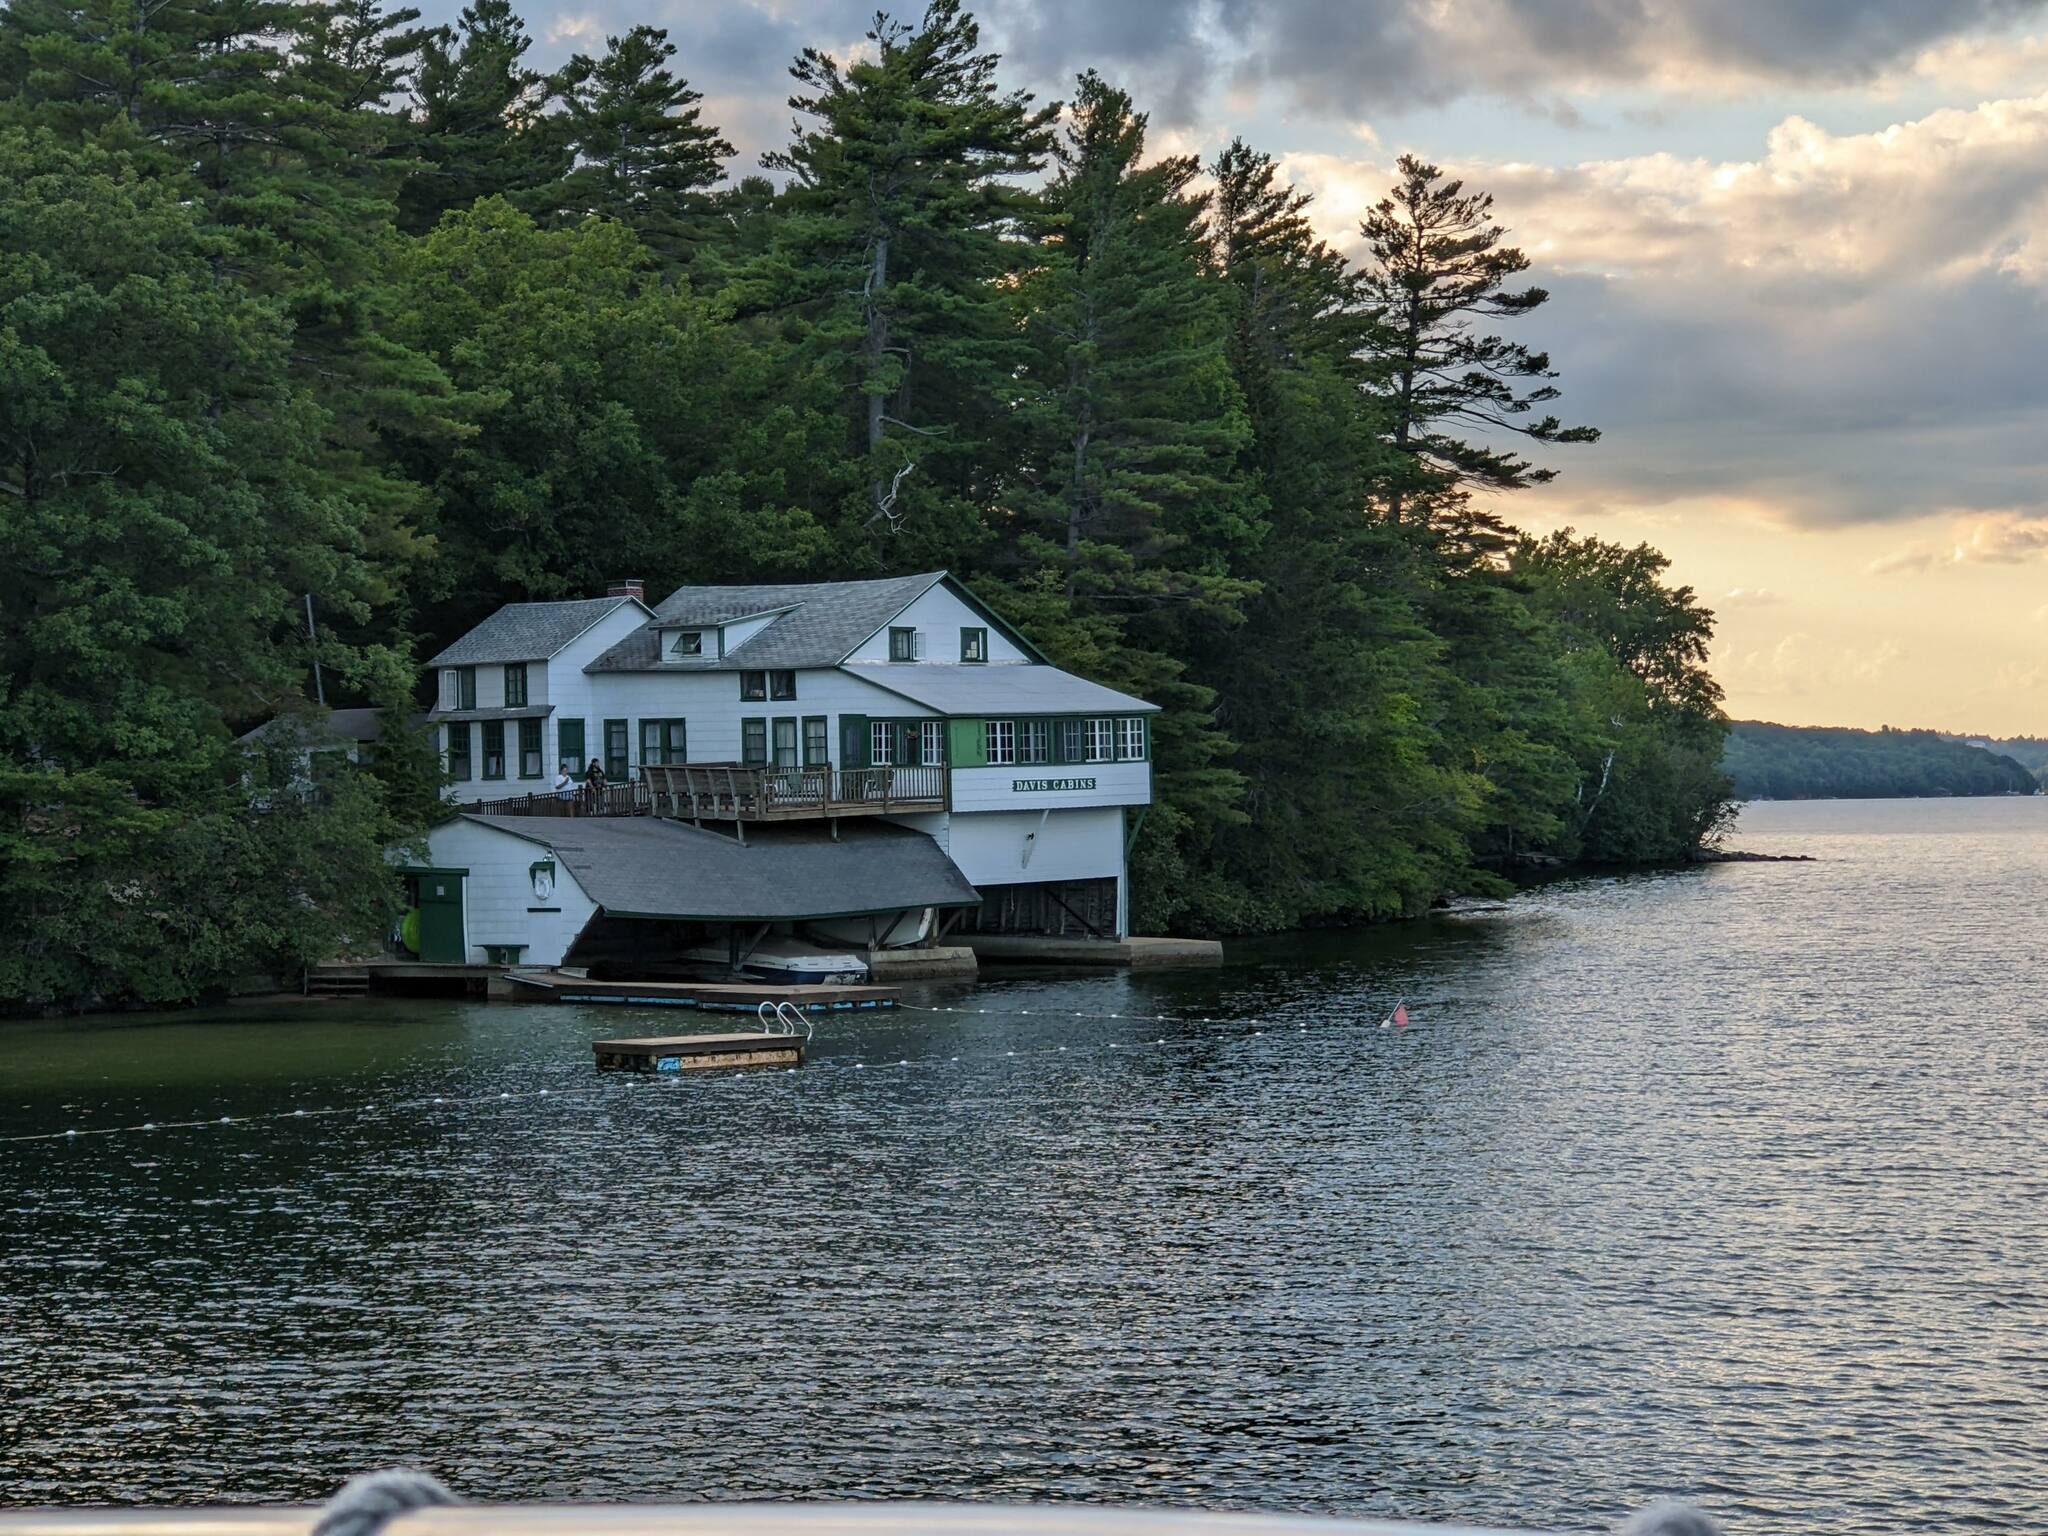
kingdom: Plantae
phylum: Tracheophyta
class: Pinopsida
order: Pinales
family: Pinaceae
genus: Pinus
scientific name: Pinus strobus
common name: Weymouth pine
